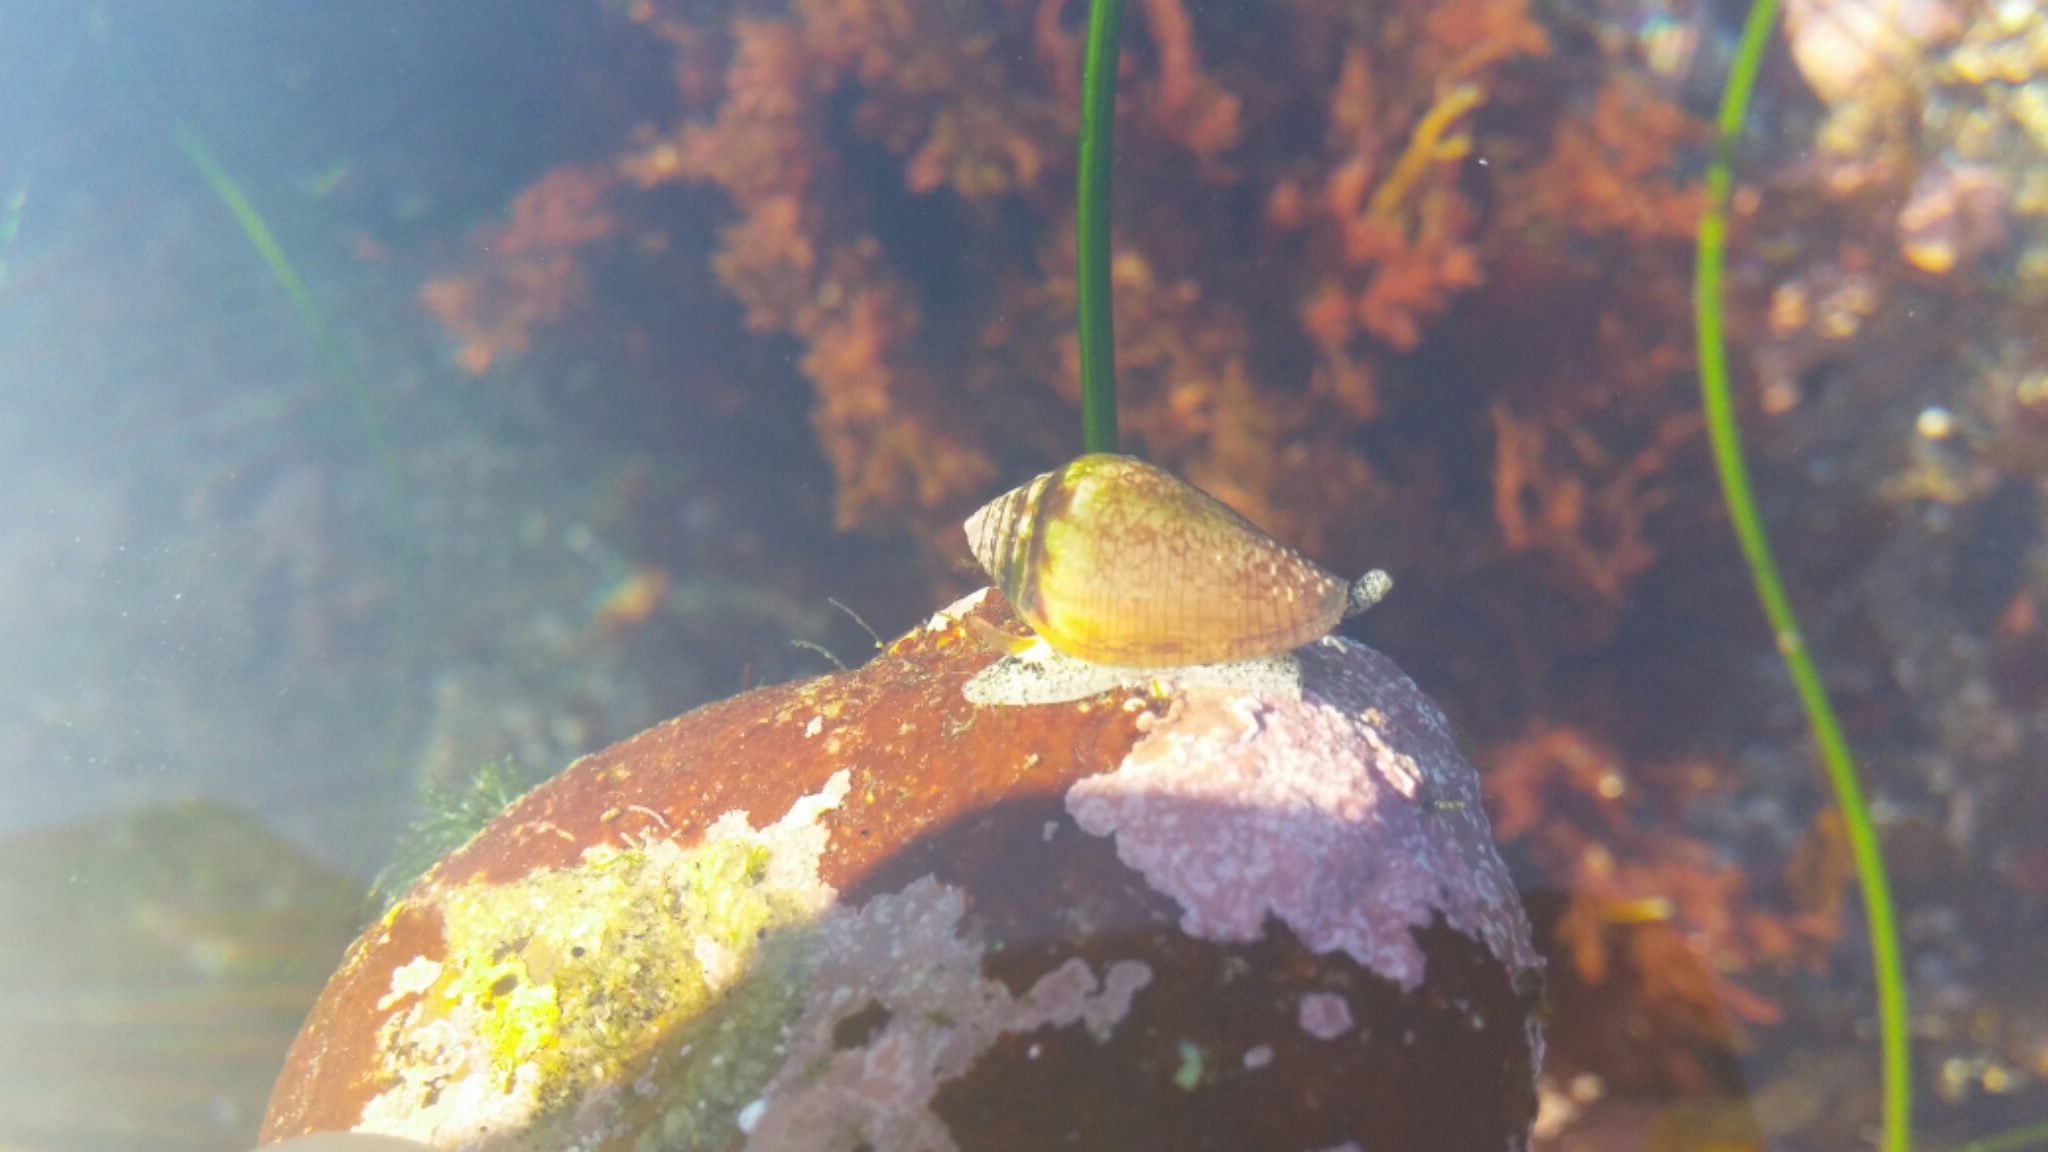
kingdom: Animalia
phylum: Mollusca
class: Gastropoda
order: Neogastropoda
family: Conidae
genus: Californiconus
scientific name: Californiconus californicus
